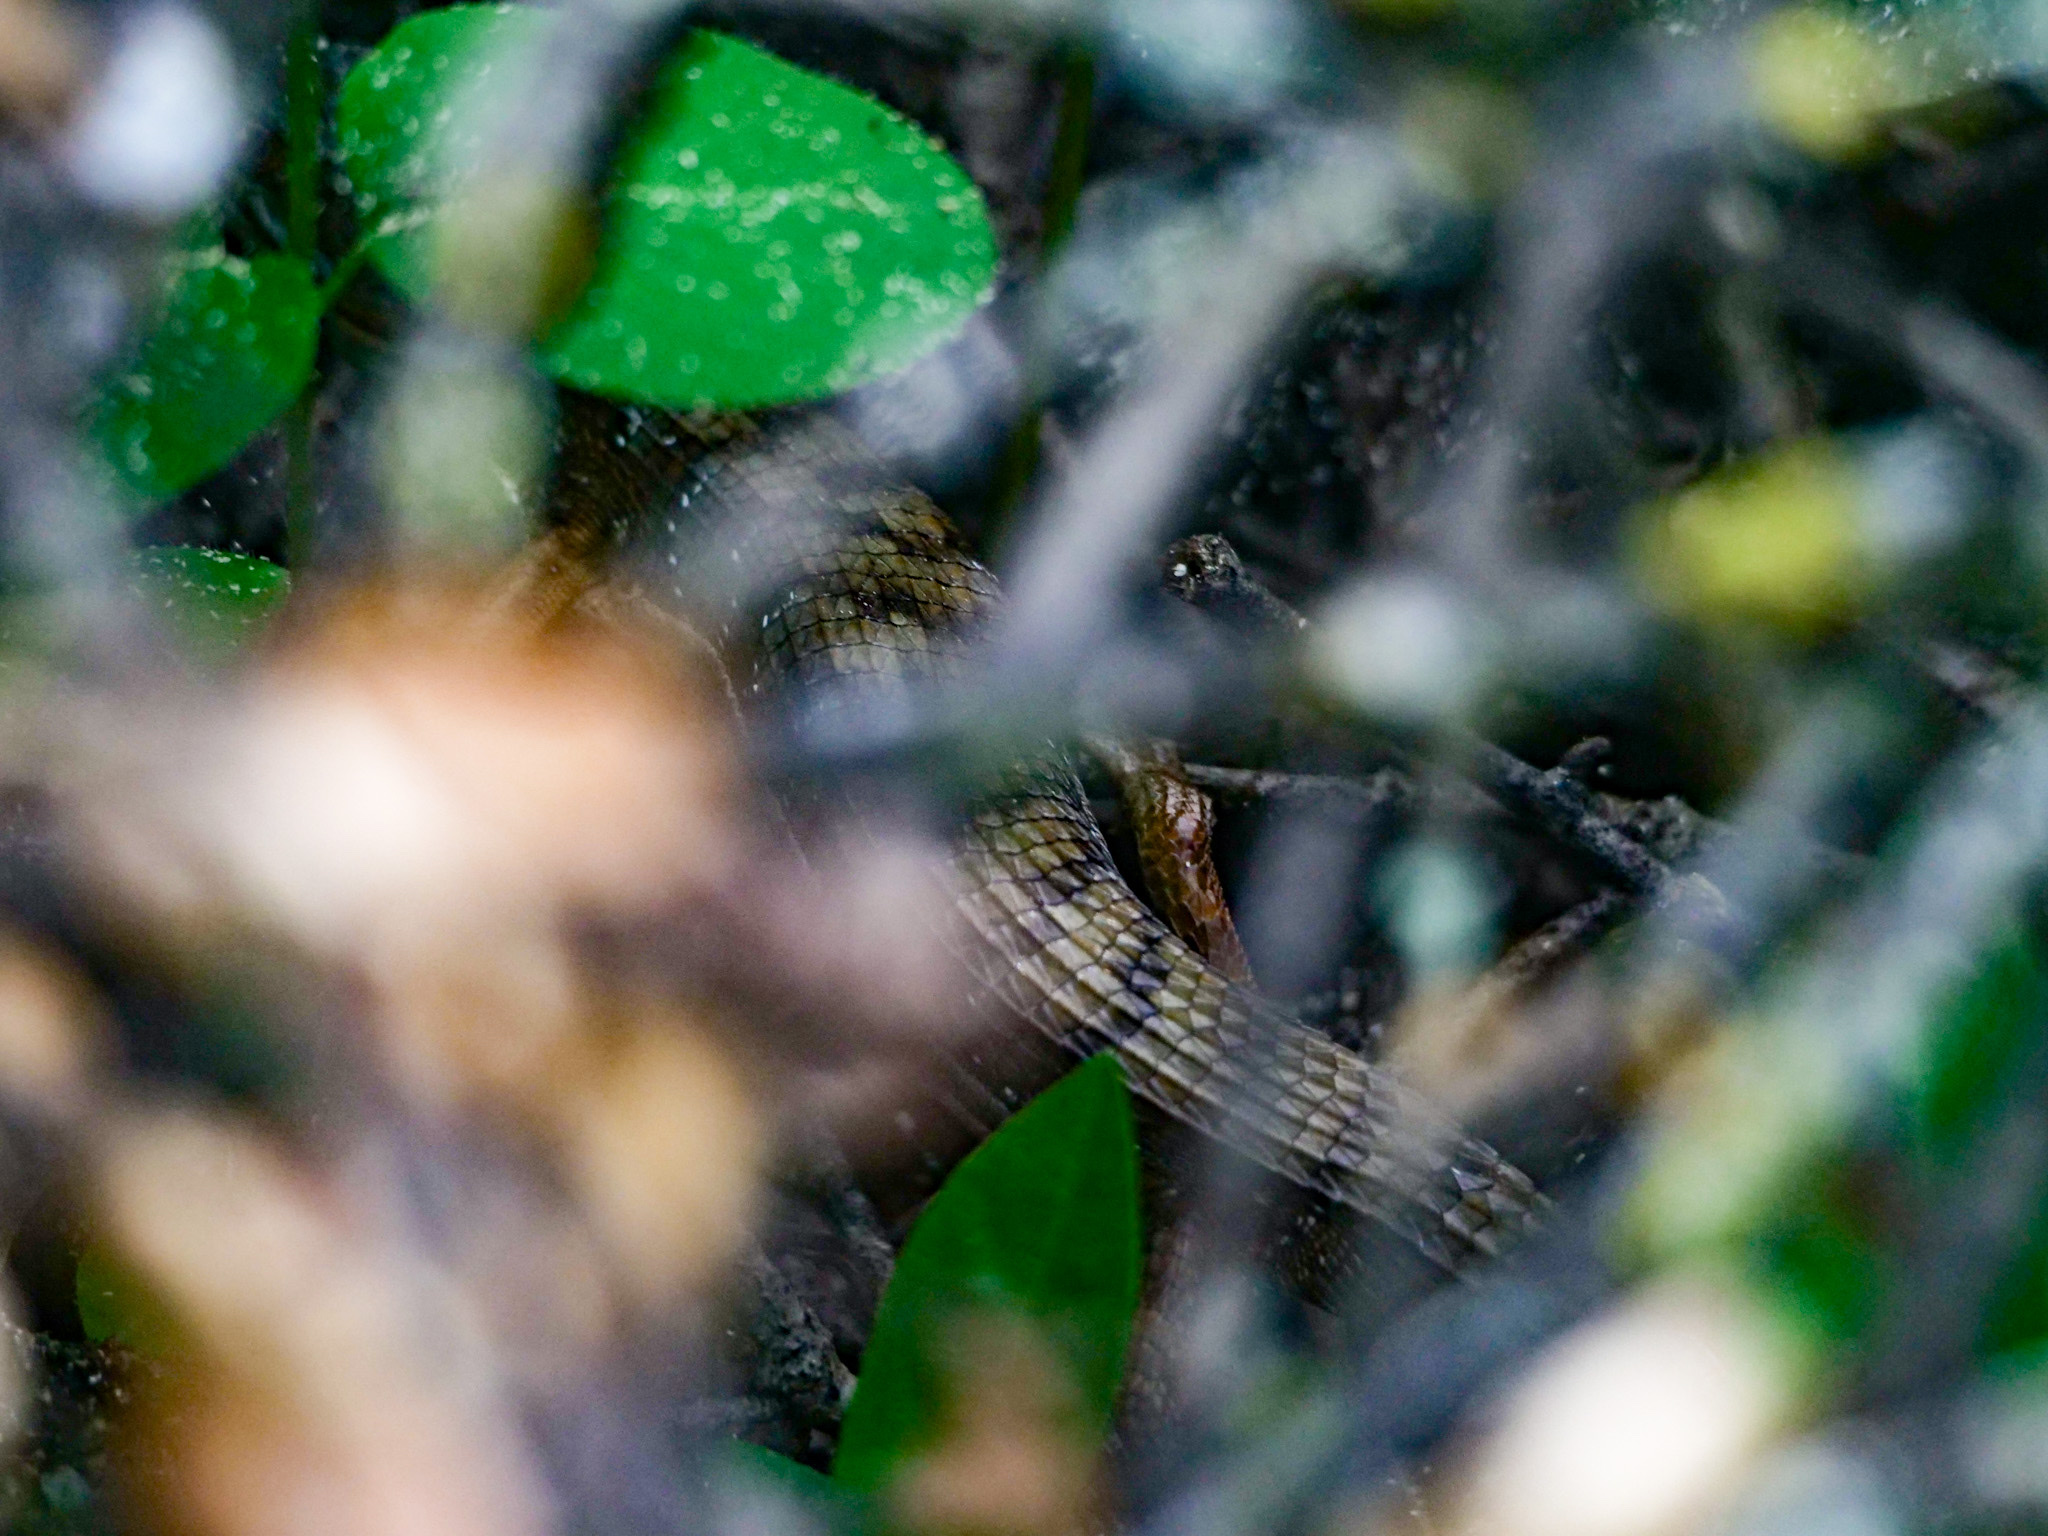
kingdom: Animalia
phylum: Chordata
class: Squamata
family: Anguidae
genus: Elgaria
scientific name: Elgaria multicarinata
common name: Southern alligator lizard
